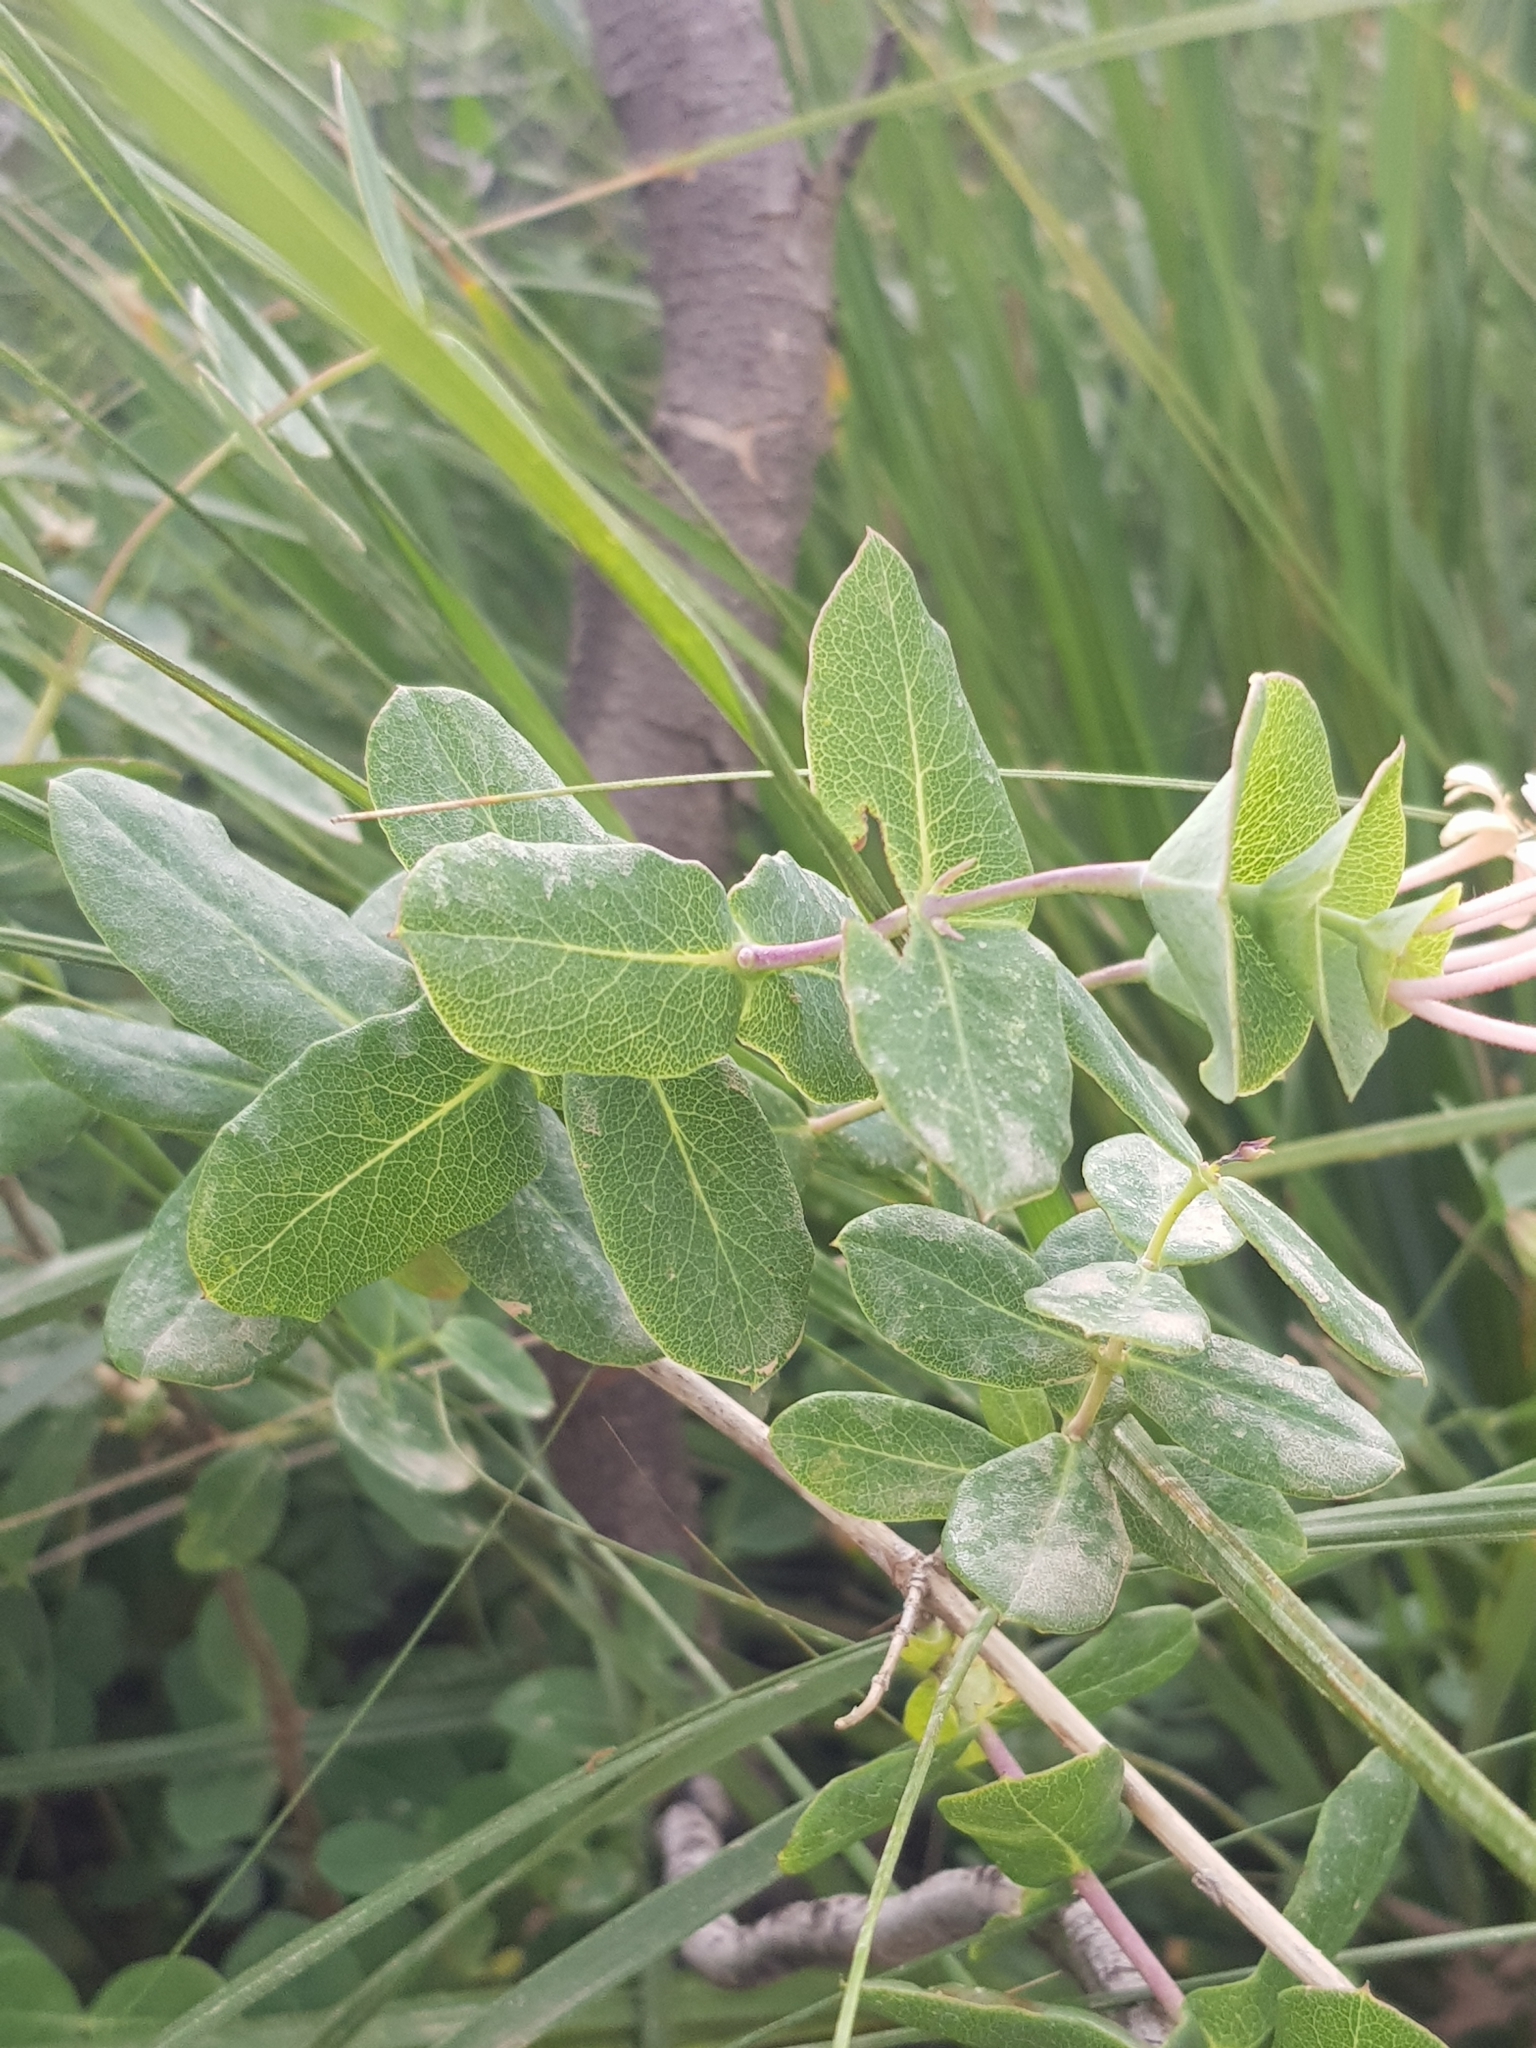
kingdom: Plantae
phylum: Tracheophyta
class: Magnoliopsida
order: Dipsacales
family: Caprifoliaceae
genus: Lonicera
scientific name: Lonicera implexa
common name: Minorca honeysuckle
